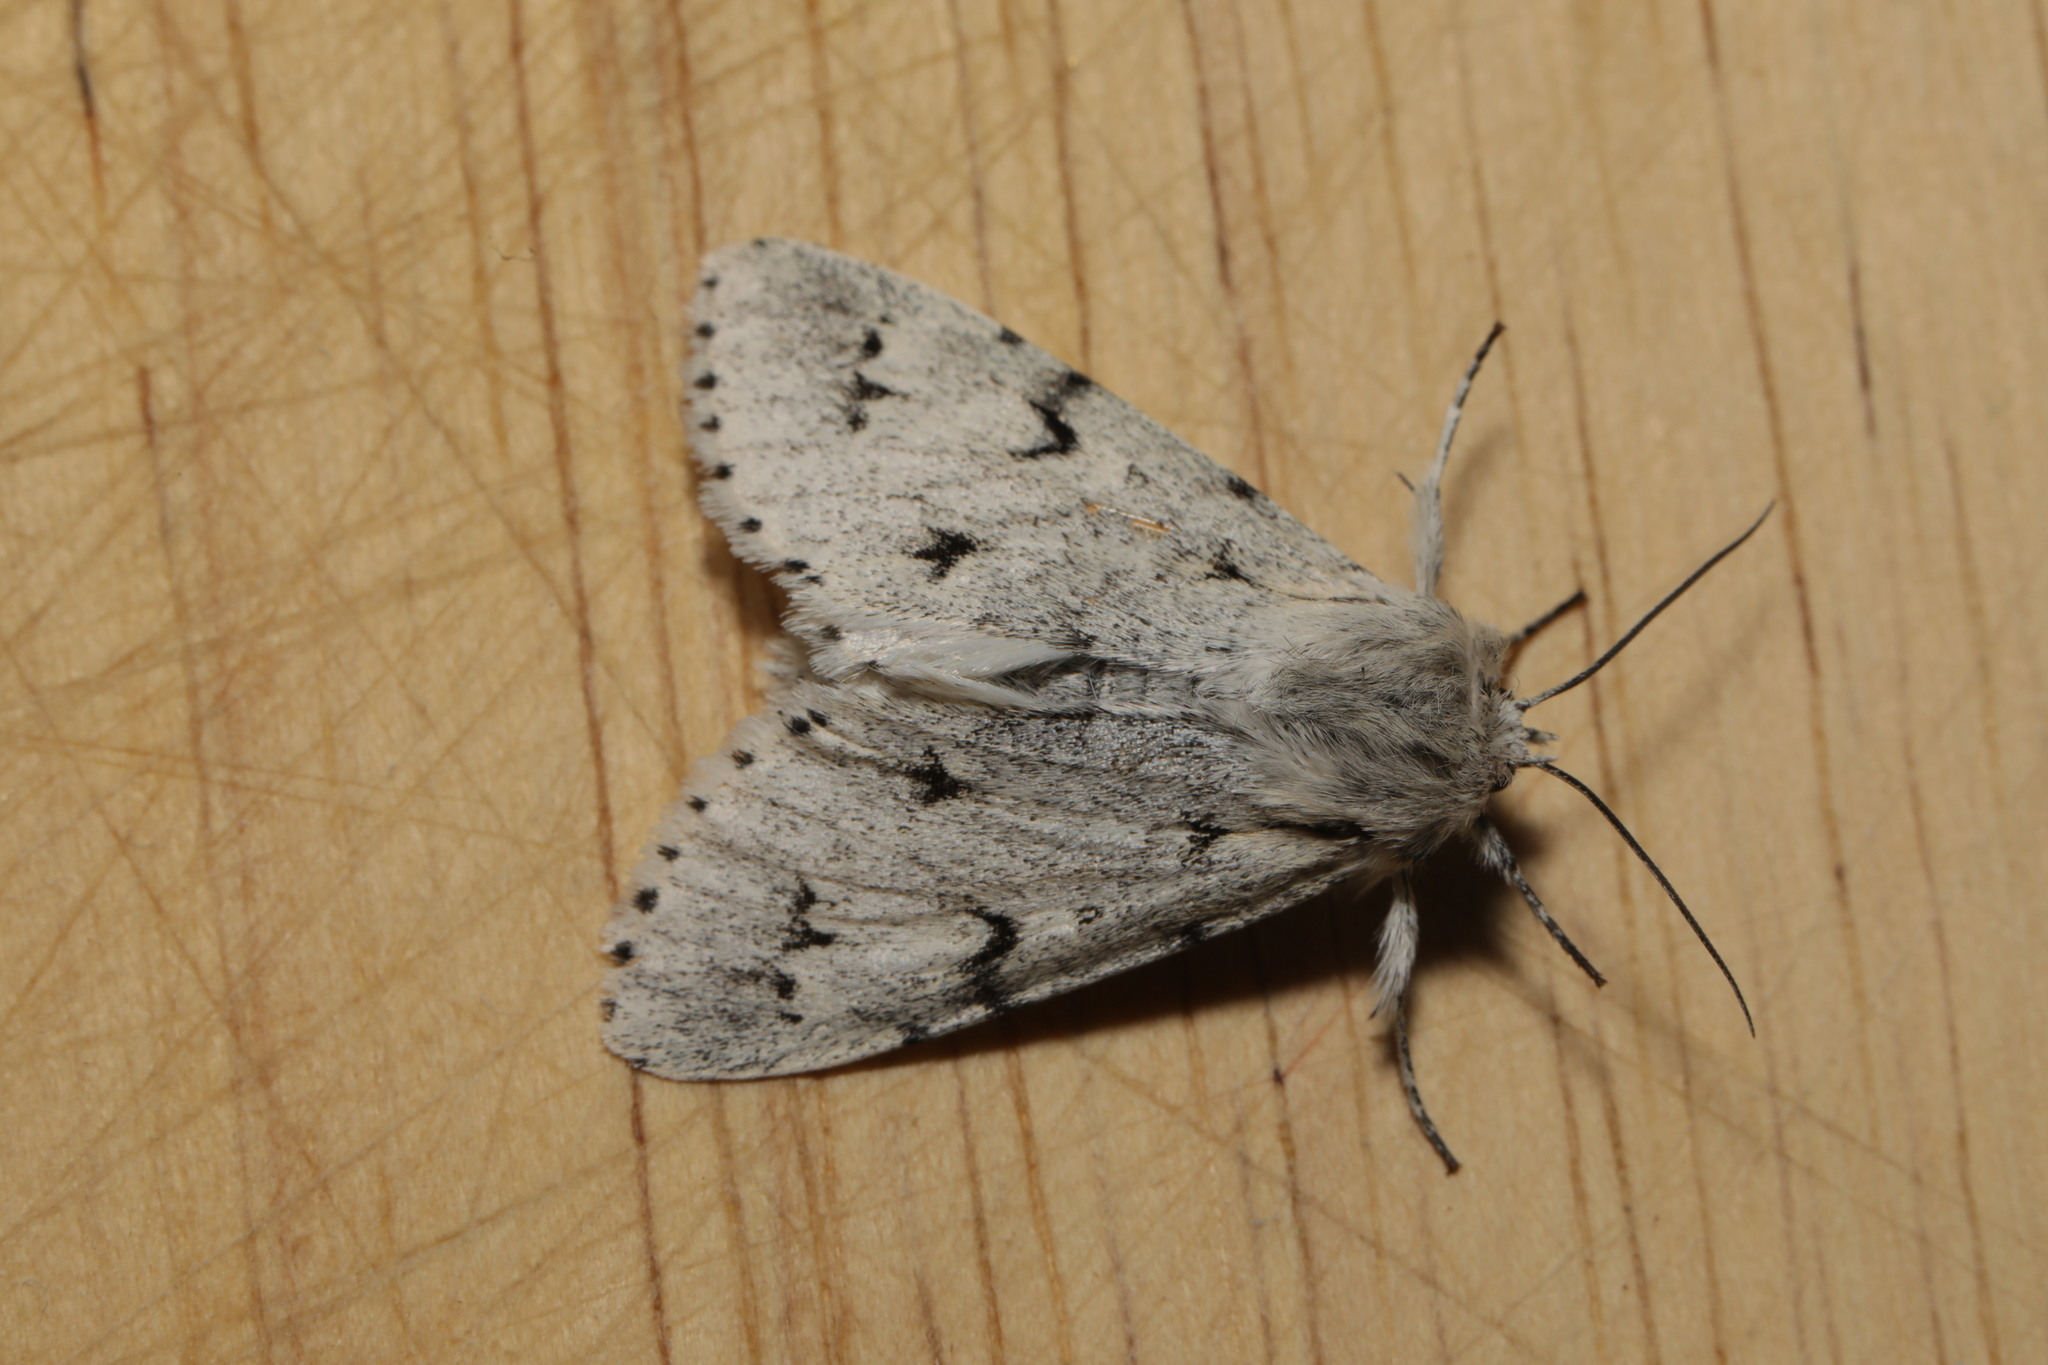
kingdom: Animalia
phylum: Arthropoda
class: Insecta
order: Lepidoptera
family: Noctuidae
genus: Acronicta
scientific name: Acronicta leporina
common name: Miller
